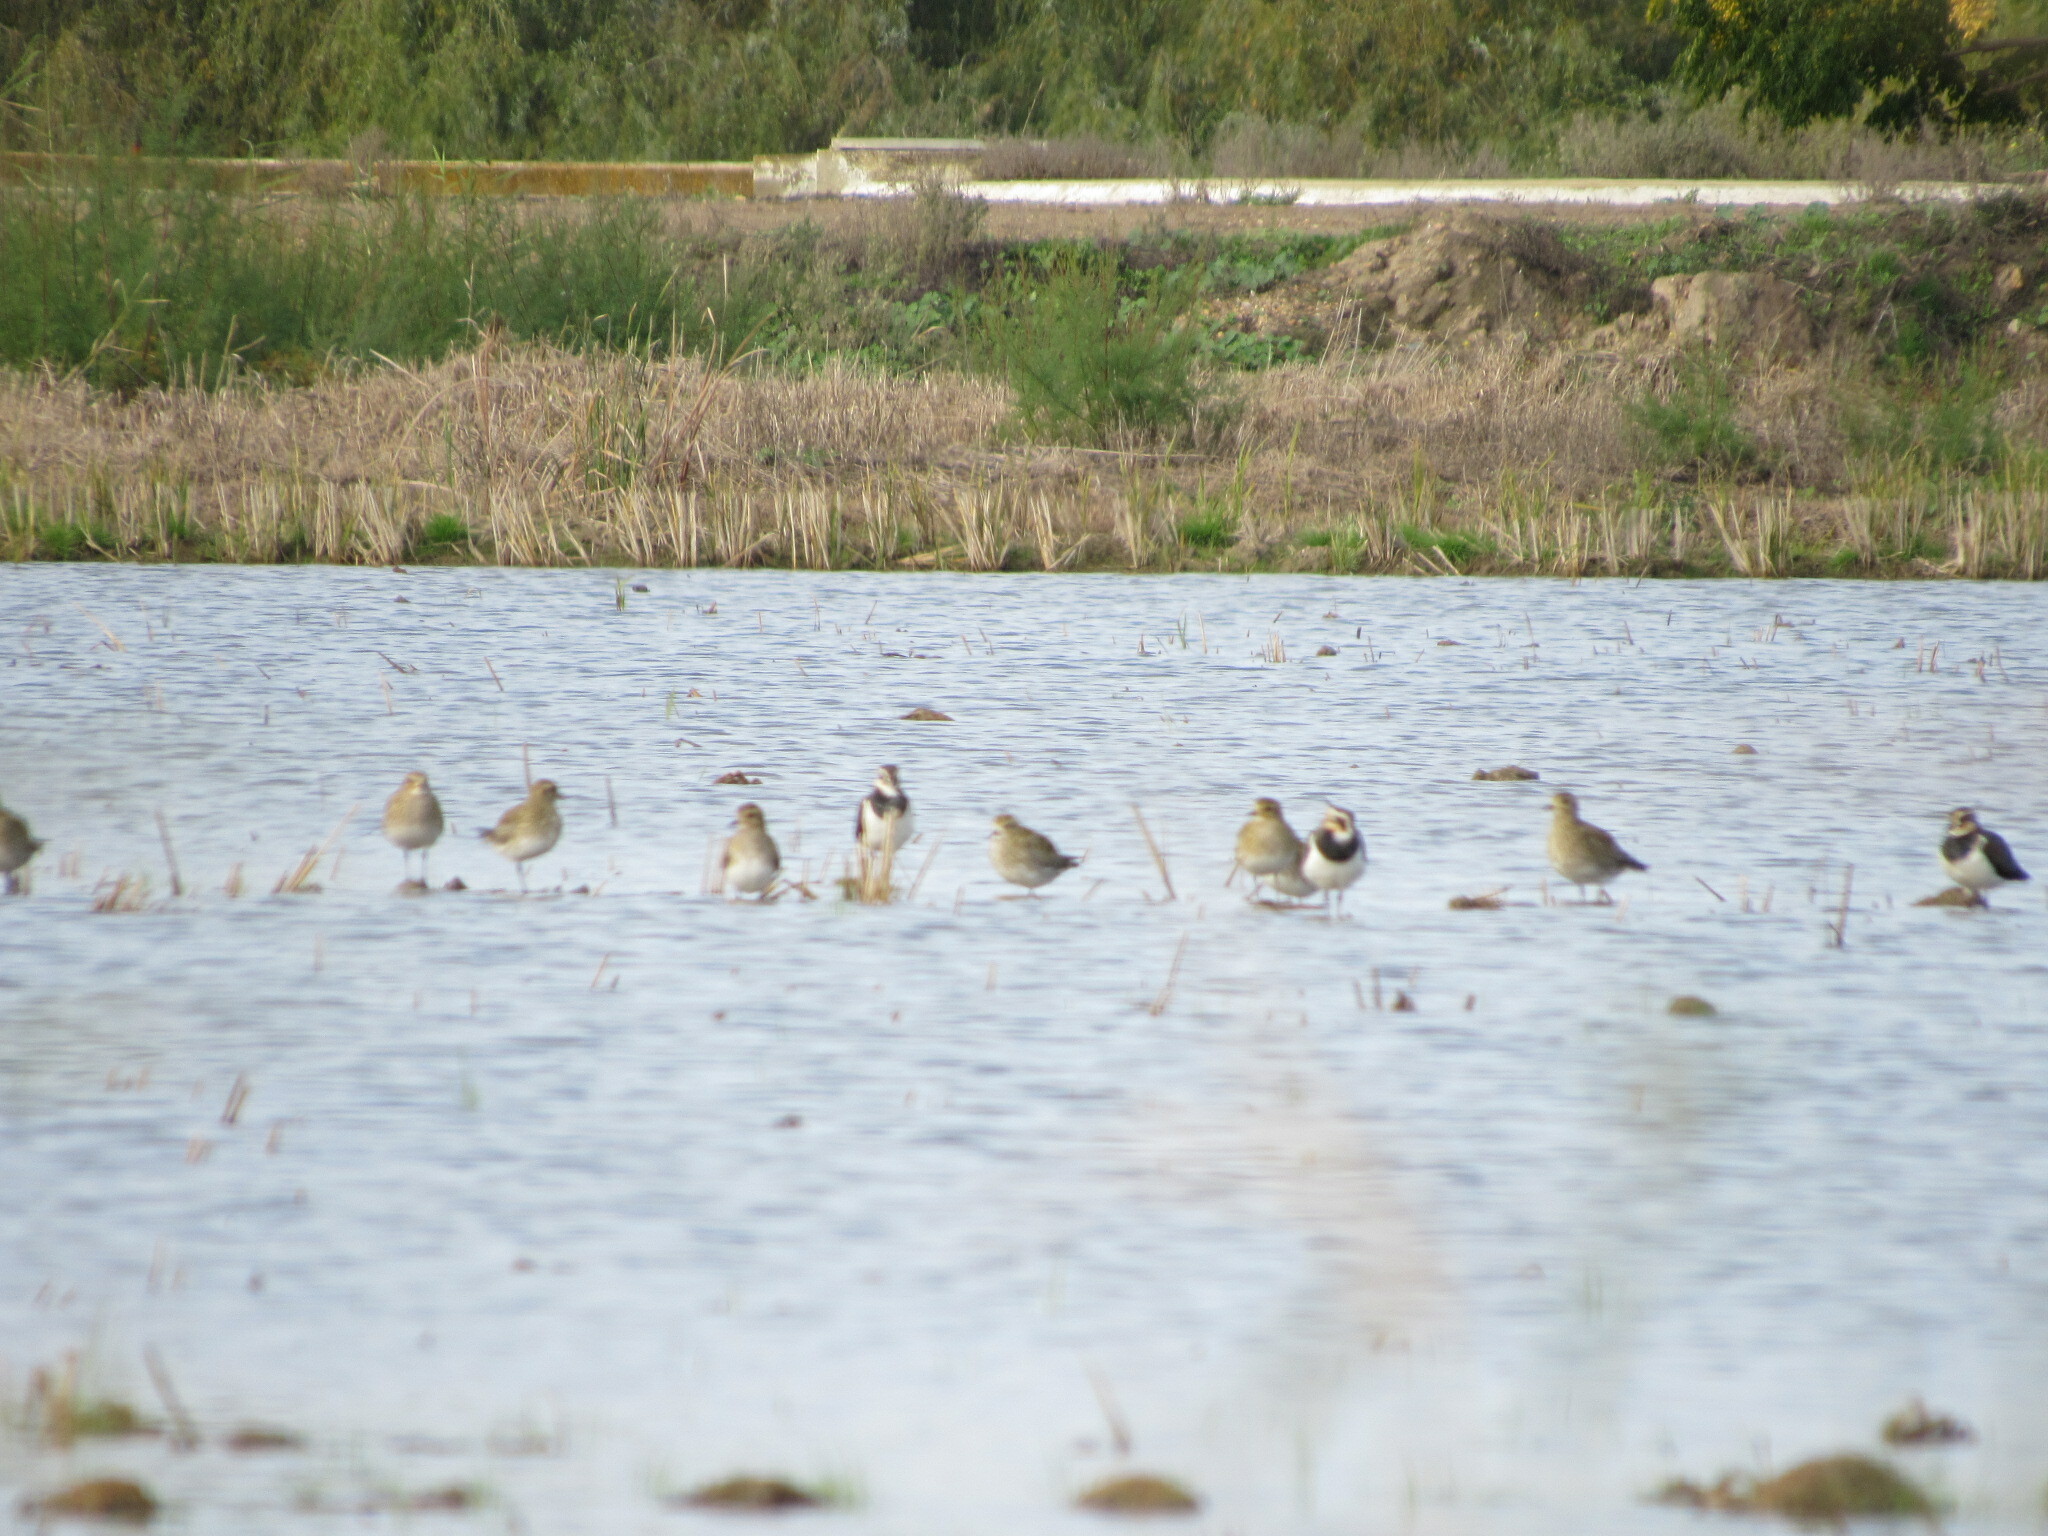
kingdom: Animalia
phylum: Chordata
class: Aves
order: Charadriiformes
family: Charadriidae
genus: Pluvialis
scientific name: Pluvialis apricaria
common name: European golden plover
